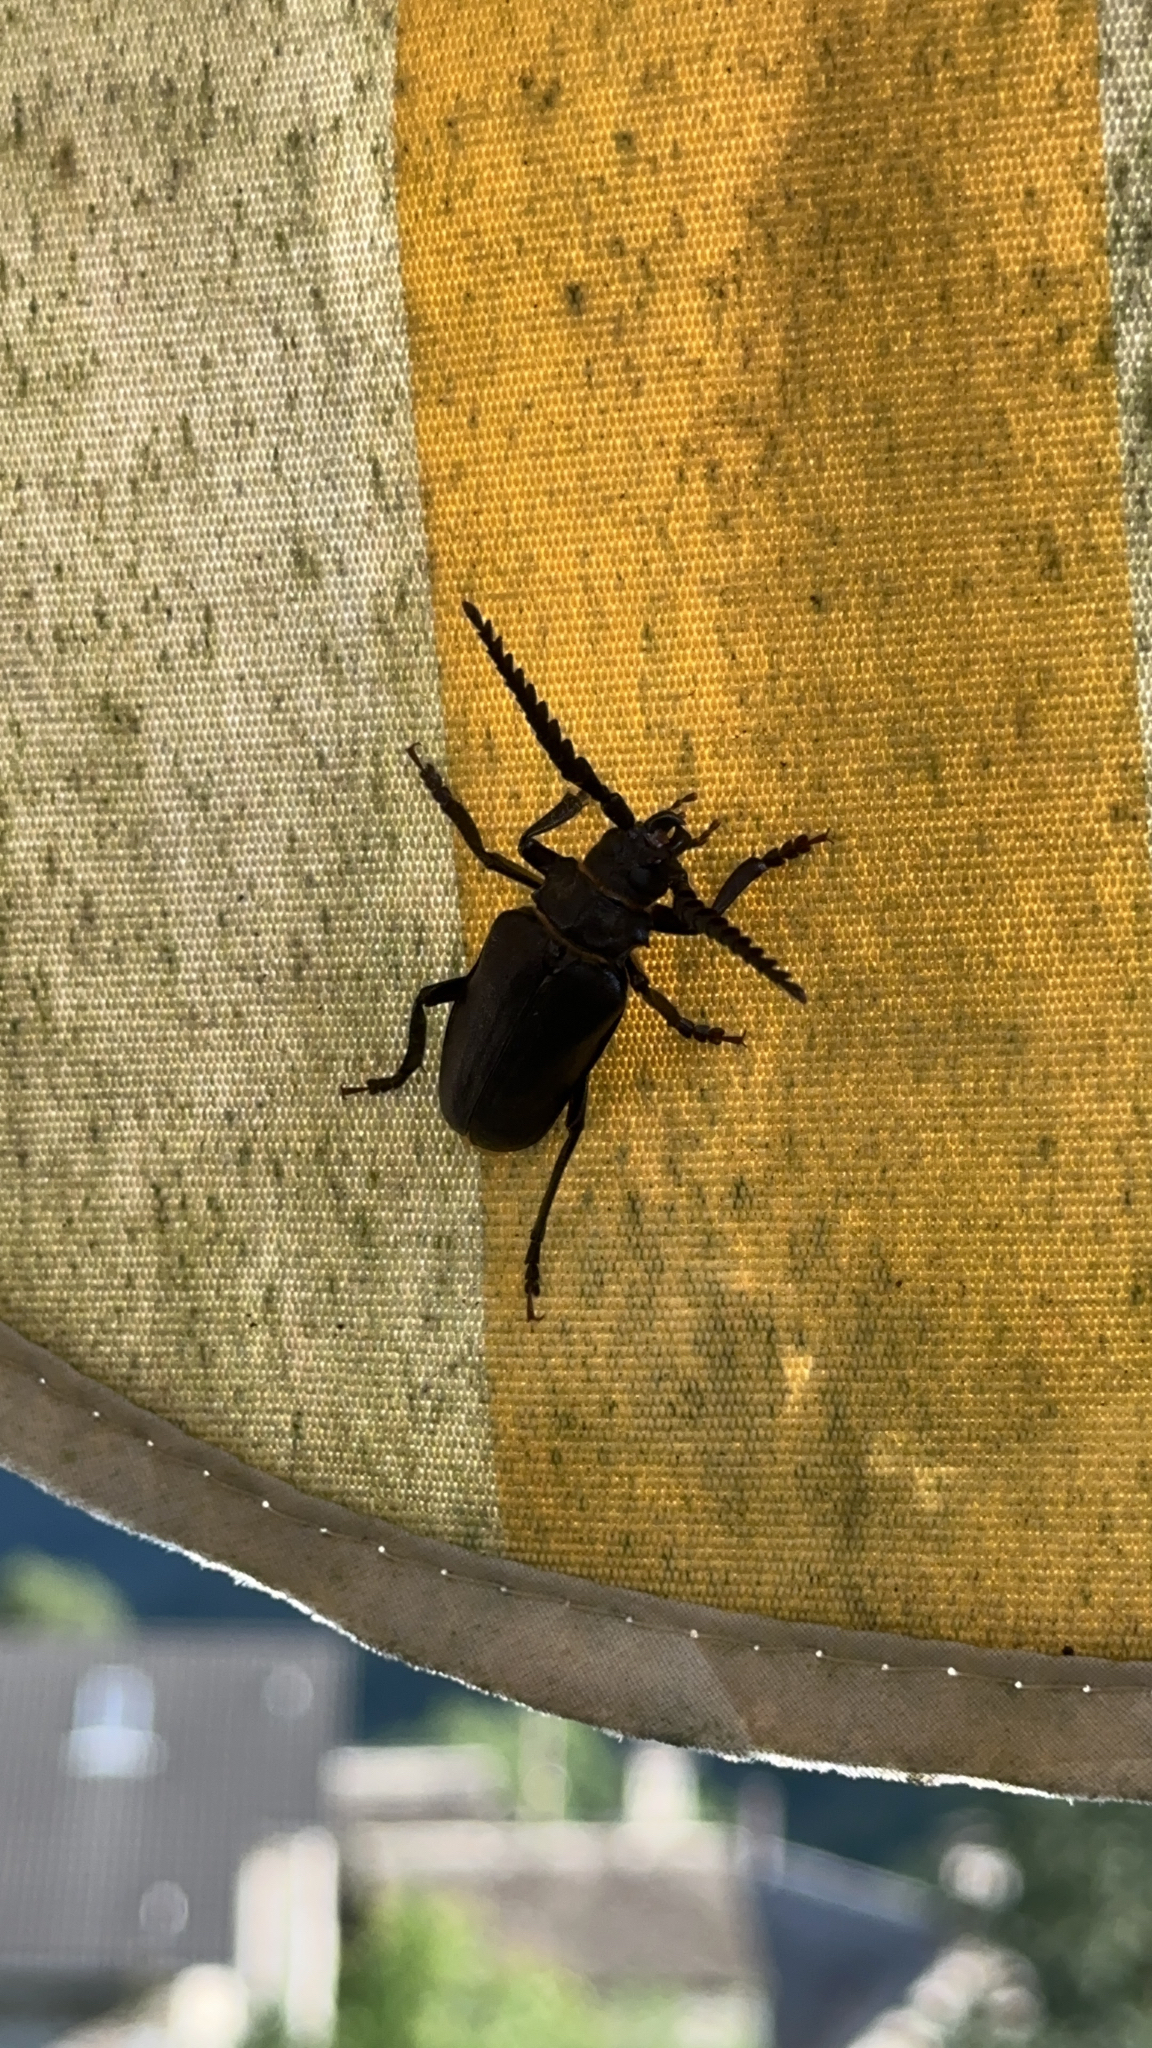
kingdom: Animalia
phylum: Arthropoda
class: Insecta
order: Coleoptera
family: Cerambycidae
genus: Prionus
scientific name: Prionus coriarius
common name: Tanner beetle
